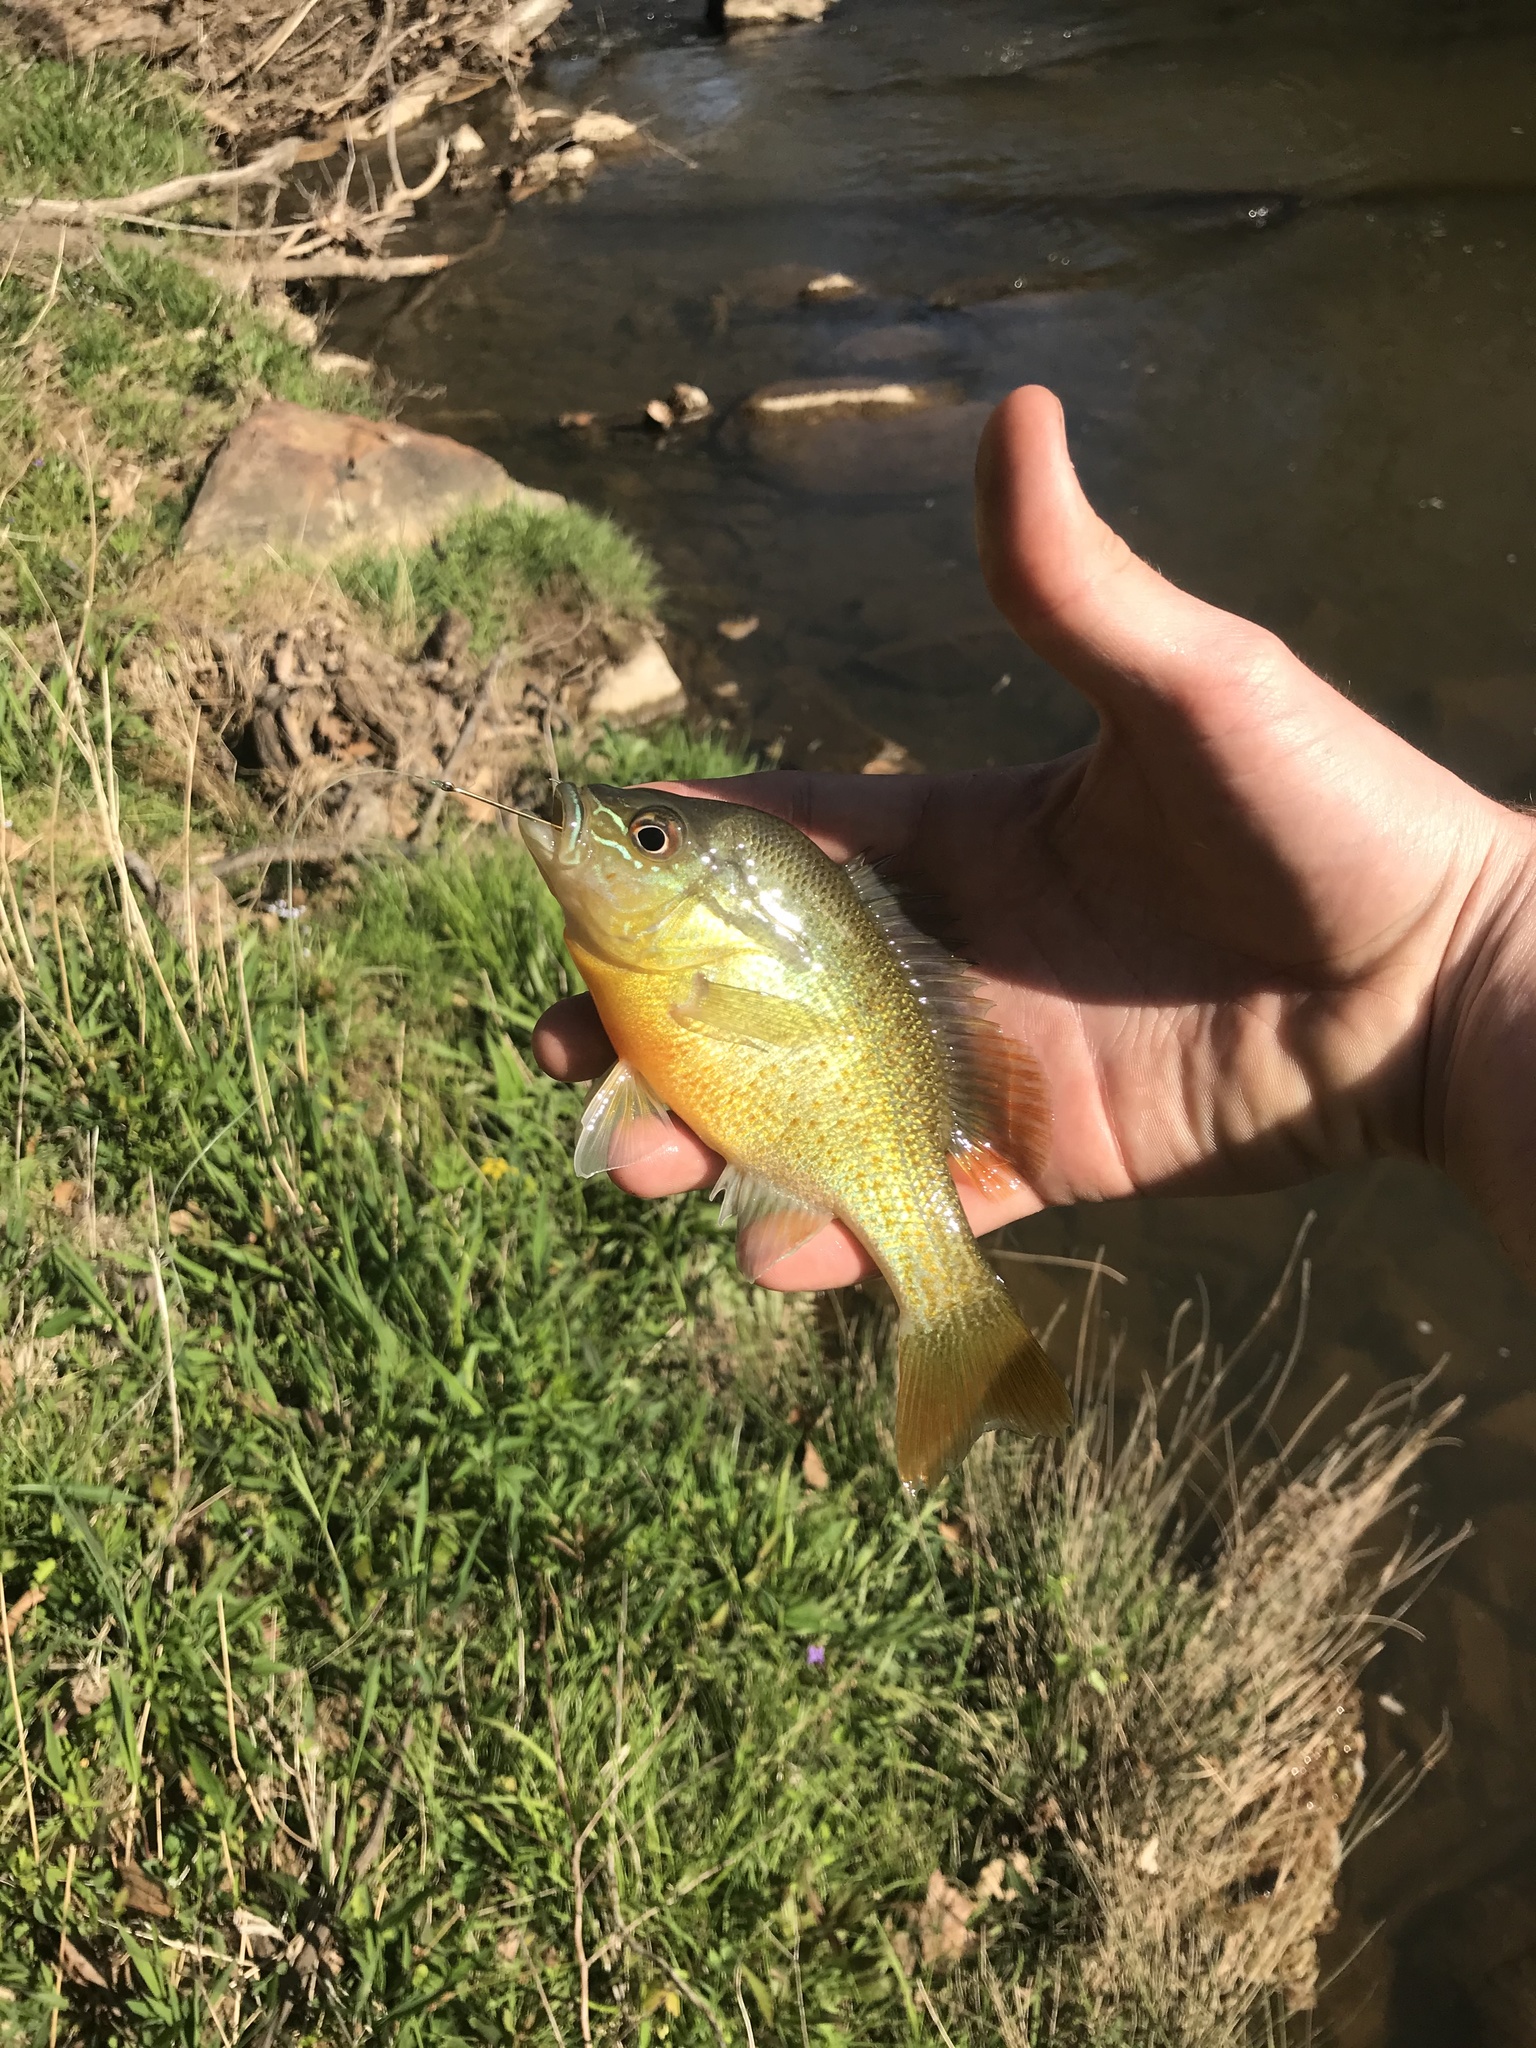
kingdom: Animalia
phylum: Chordata
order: Perciformes
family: Centrarchidae
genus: Lepomis
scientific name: Lepomis auritus
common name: Redbreast sunfish
